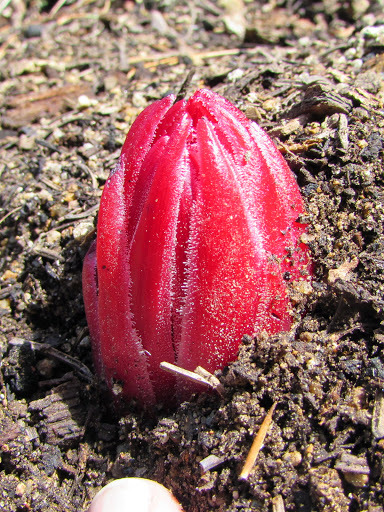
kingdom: Plantae
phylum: Tracheophyta
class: Magnoliopsida
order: Ericales
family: Ericaceae
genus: Sarcodes
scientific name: Sarcodes sanguinea
